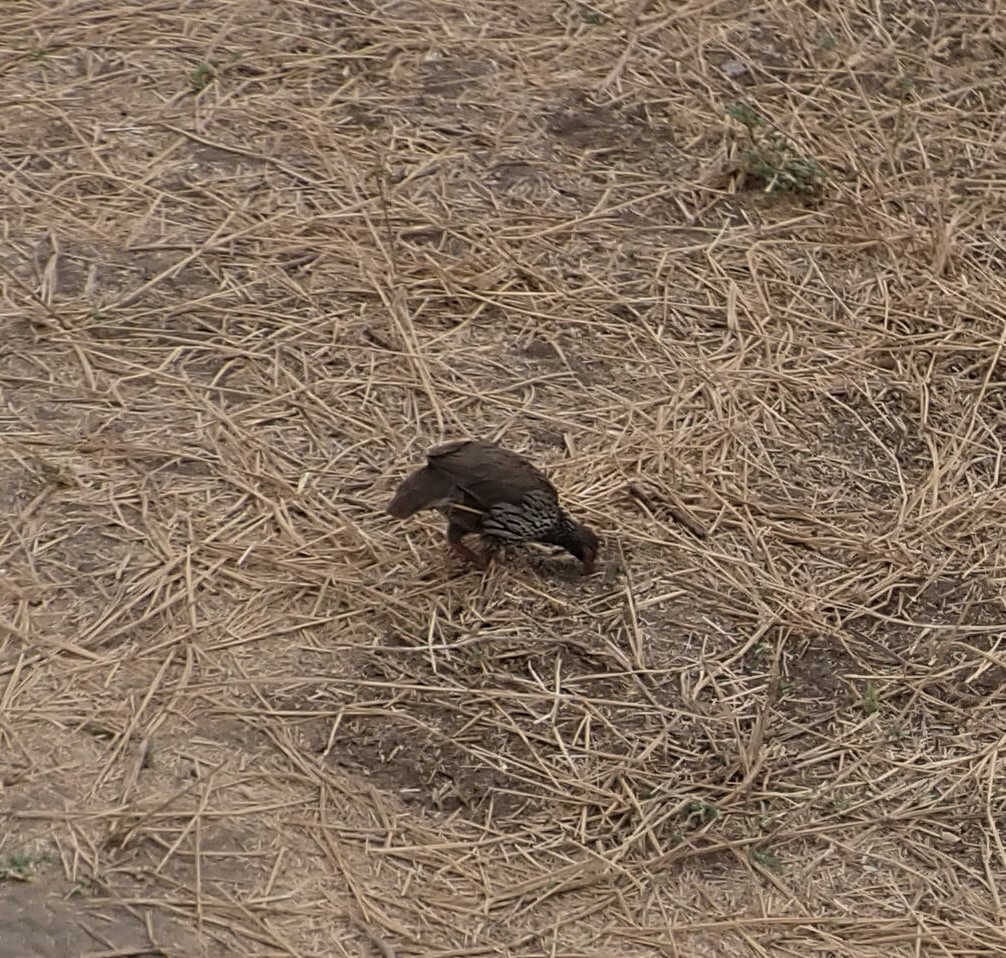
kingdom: Animalia
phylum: Chordata
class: Aves
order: Galliformes
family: Phasianidae
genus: Pternistis
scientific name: Pternistis afer
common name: Red-necked spurfowl
